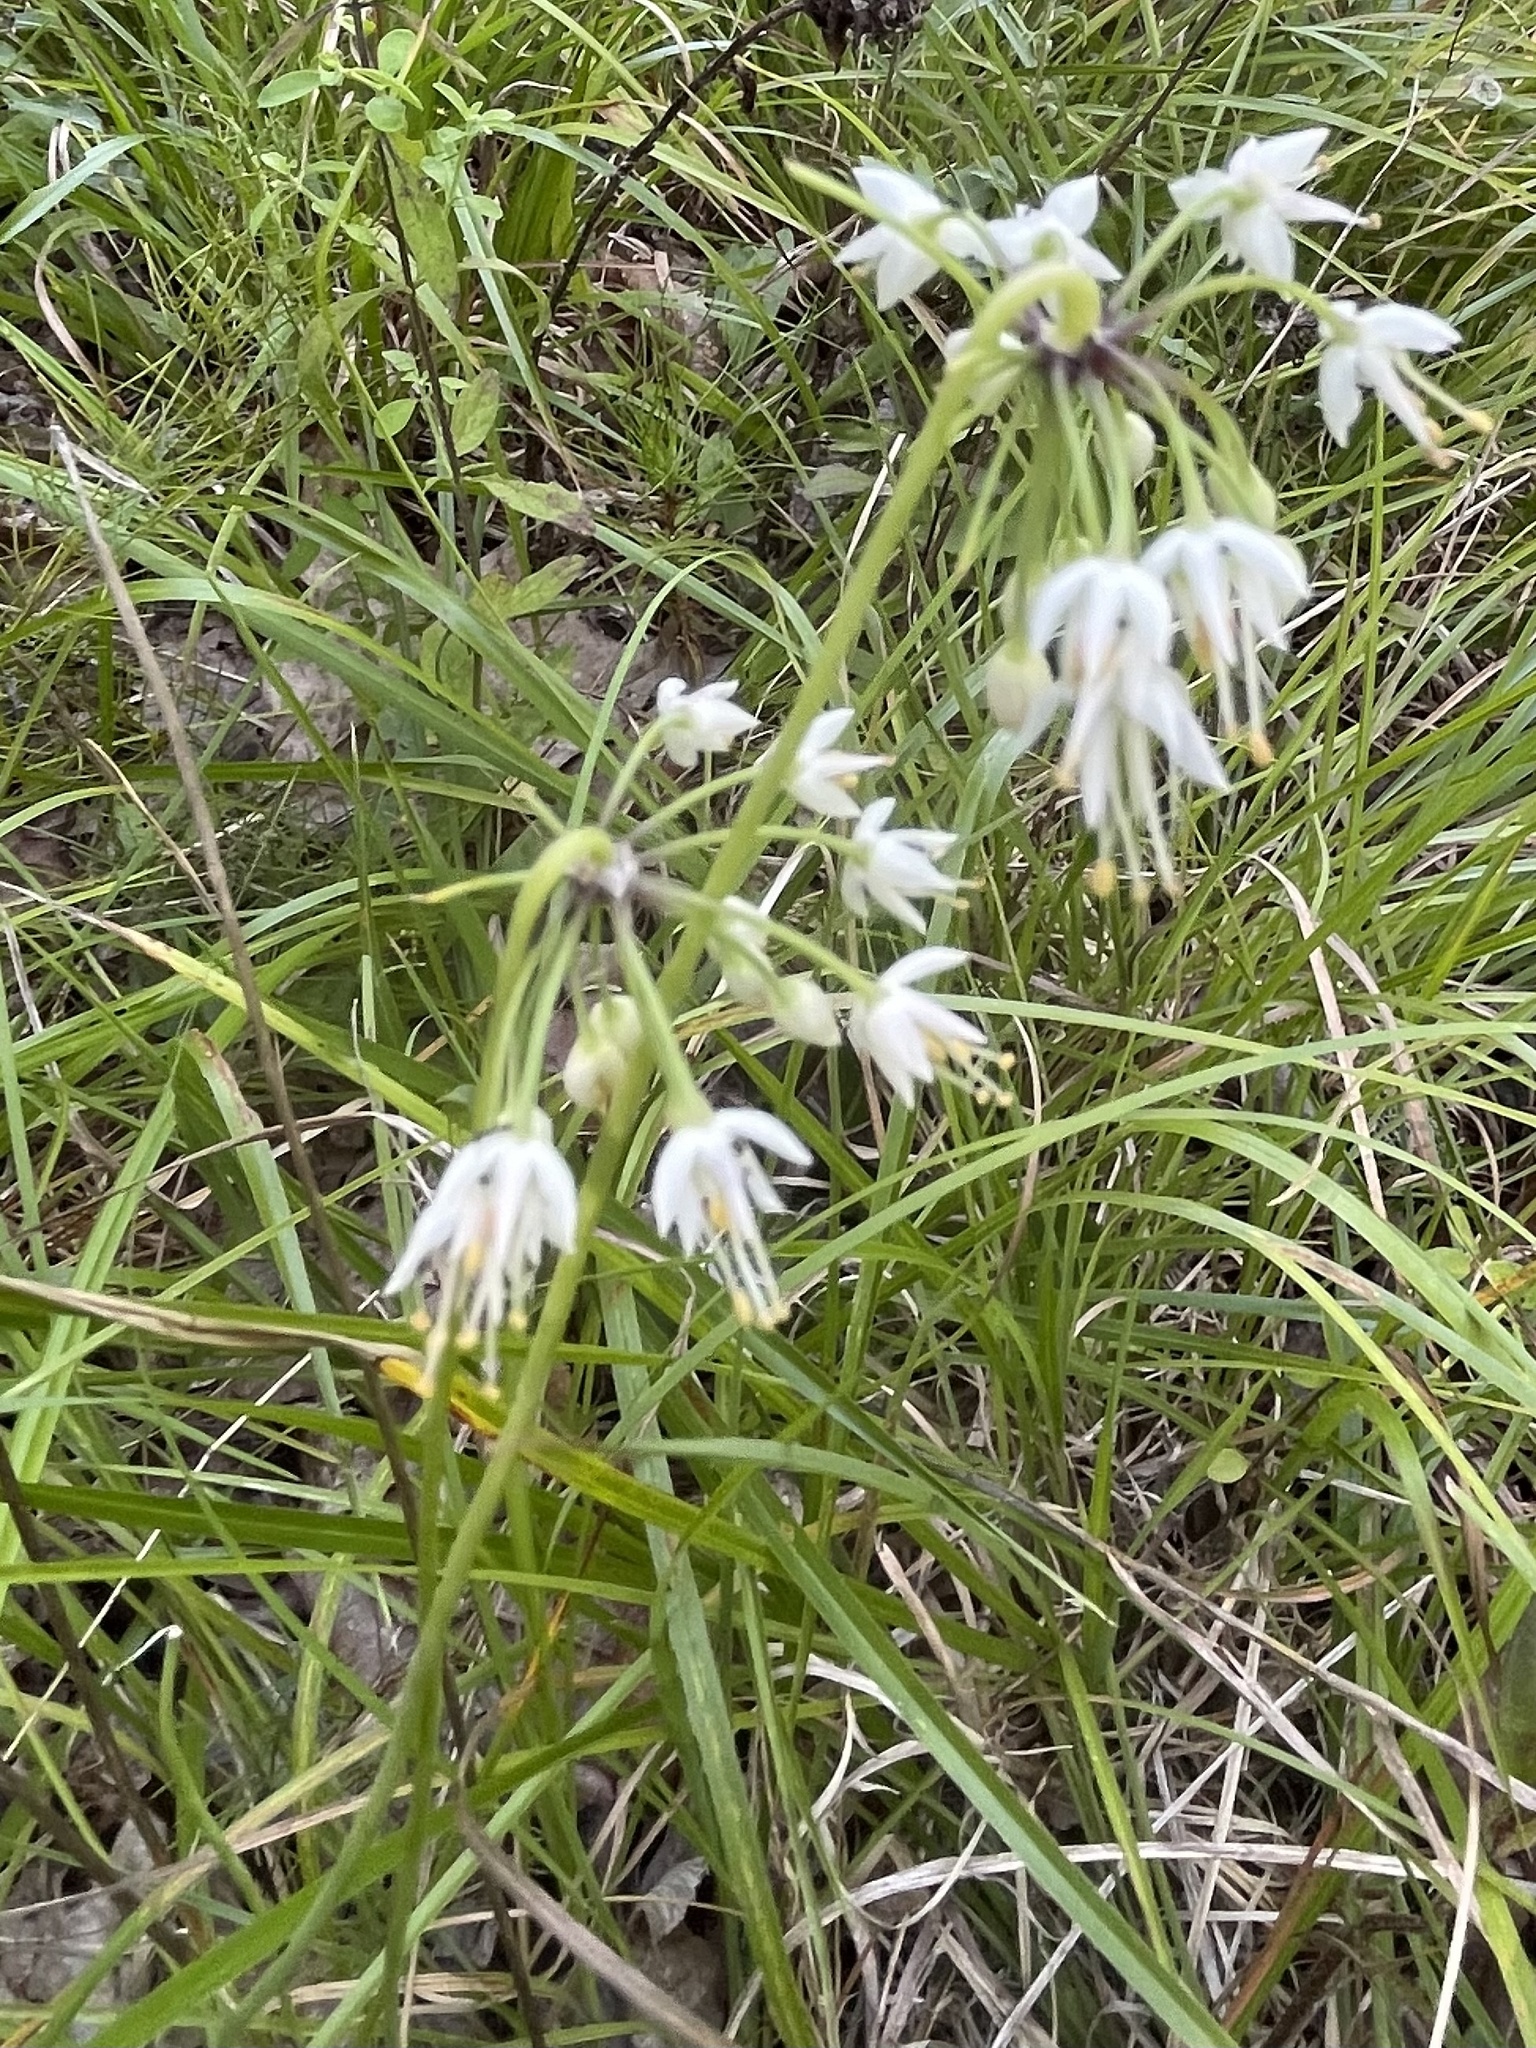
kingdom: Plantae
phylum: Tracheophyta
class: Liliopsida
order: Asparagales
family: Amaryllidaceae
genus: Allium
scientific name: Allium cernuum
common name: Nodding onion
